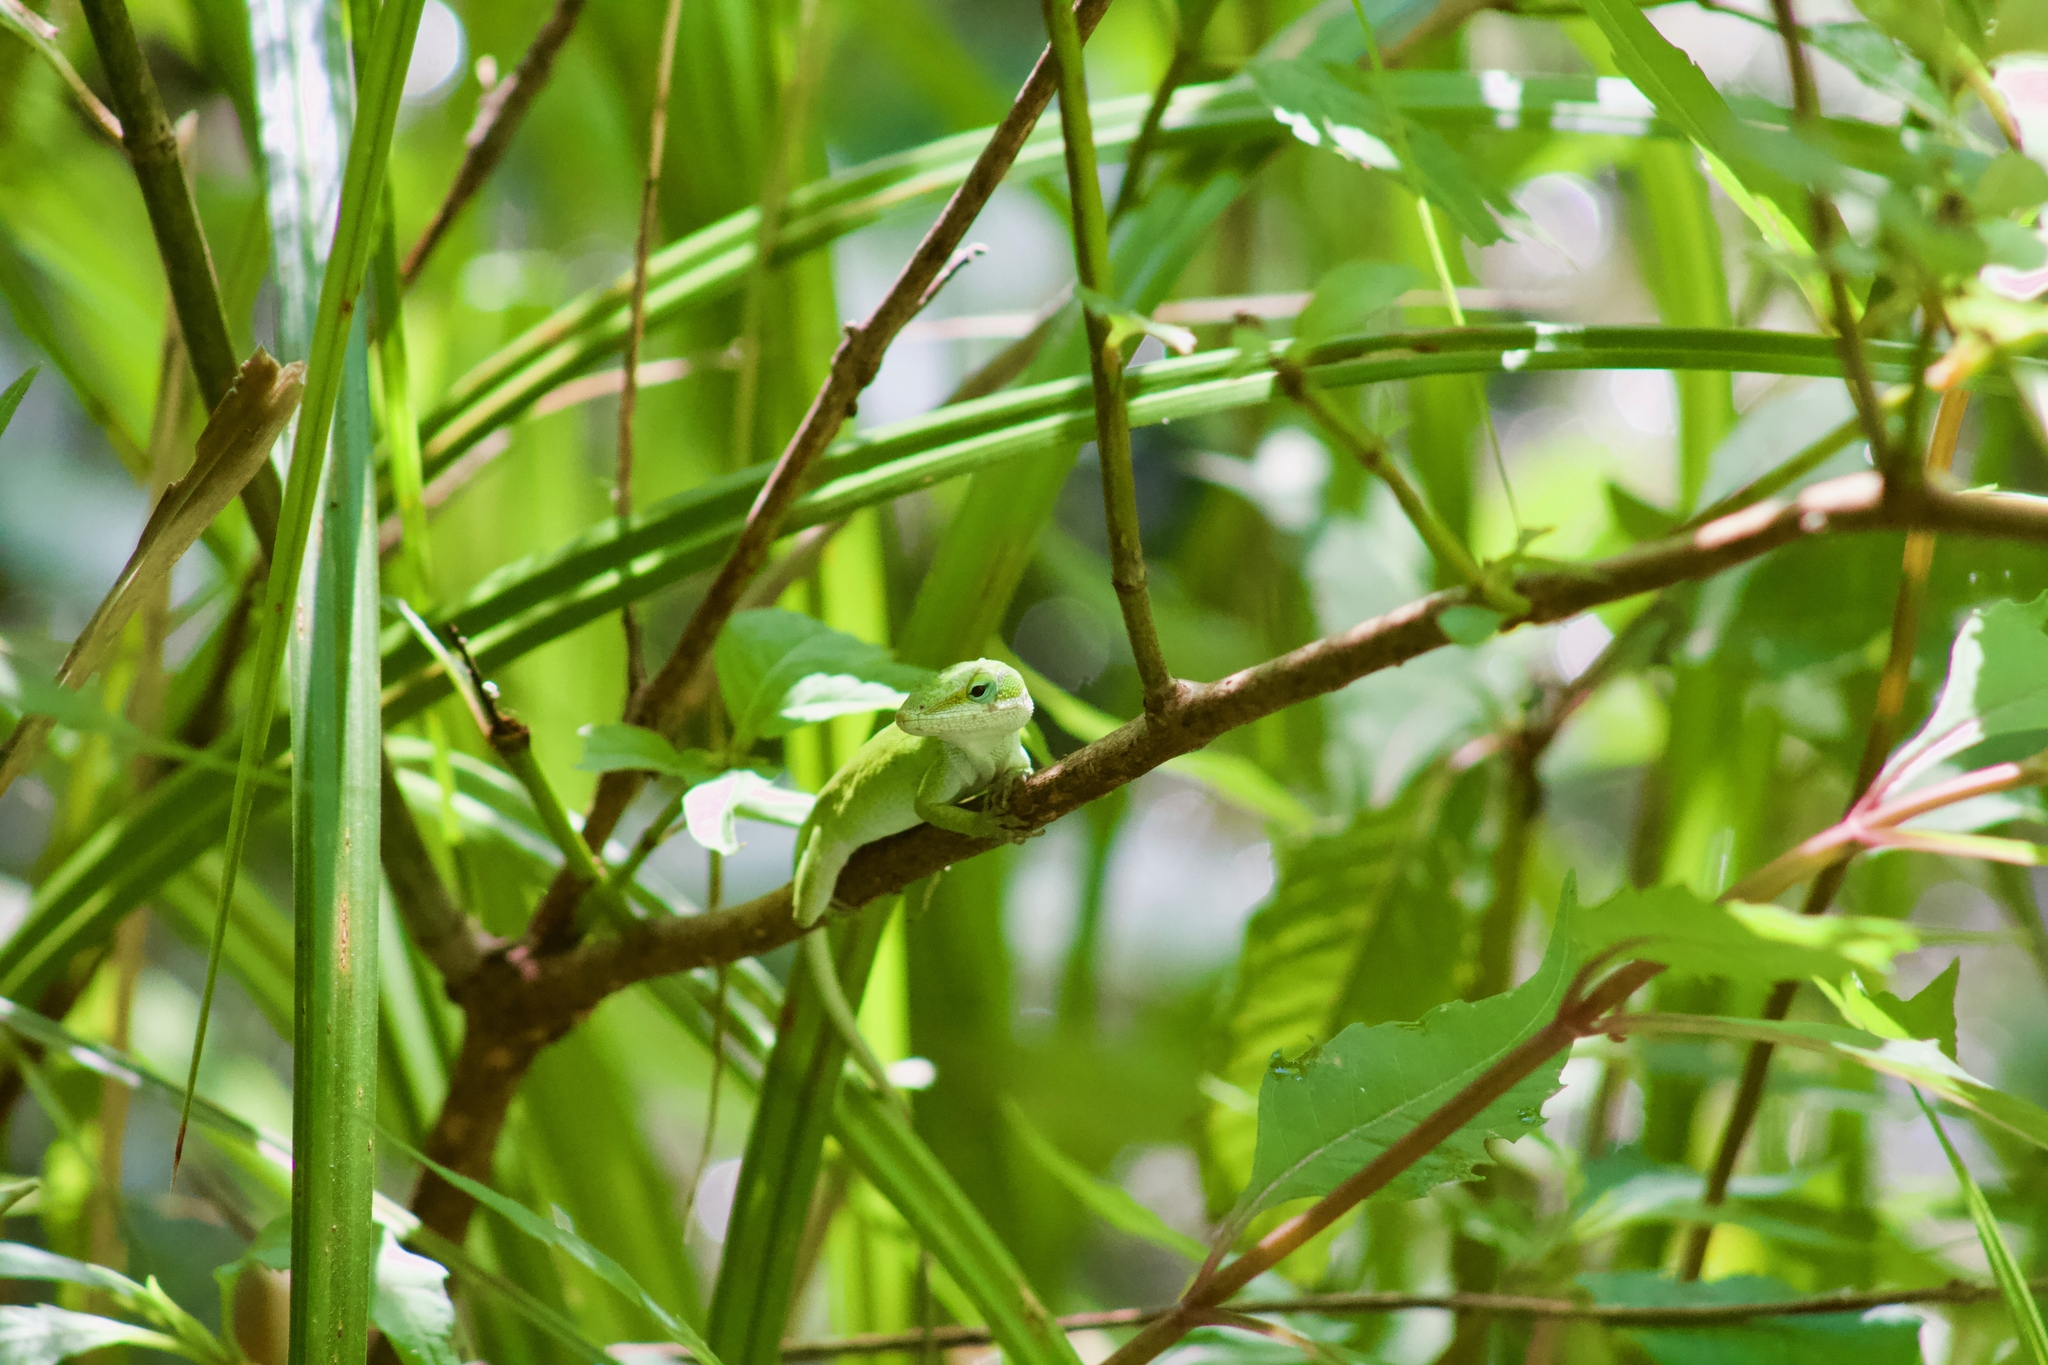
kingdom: Animalia
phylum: Chordata
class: Squamata
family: Dactyloidae
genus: Anolis
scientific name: Anolis carolinensis
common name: Green anole
